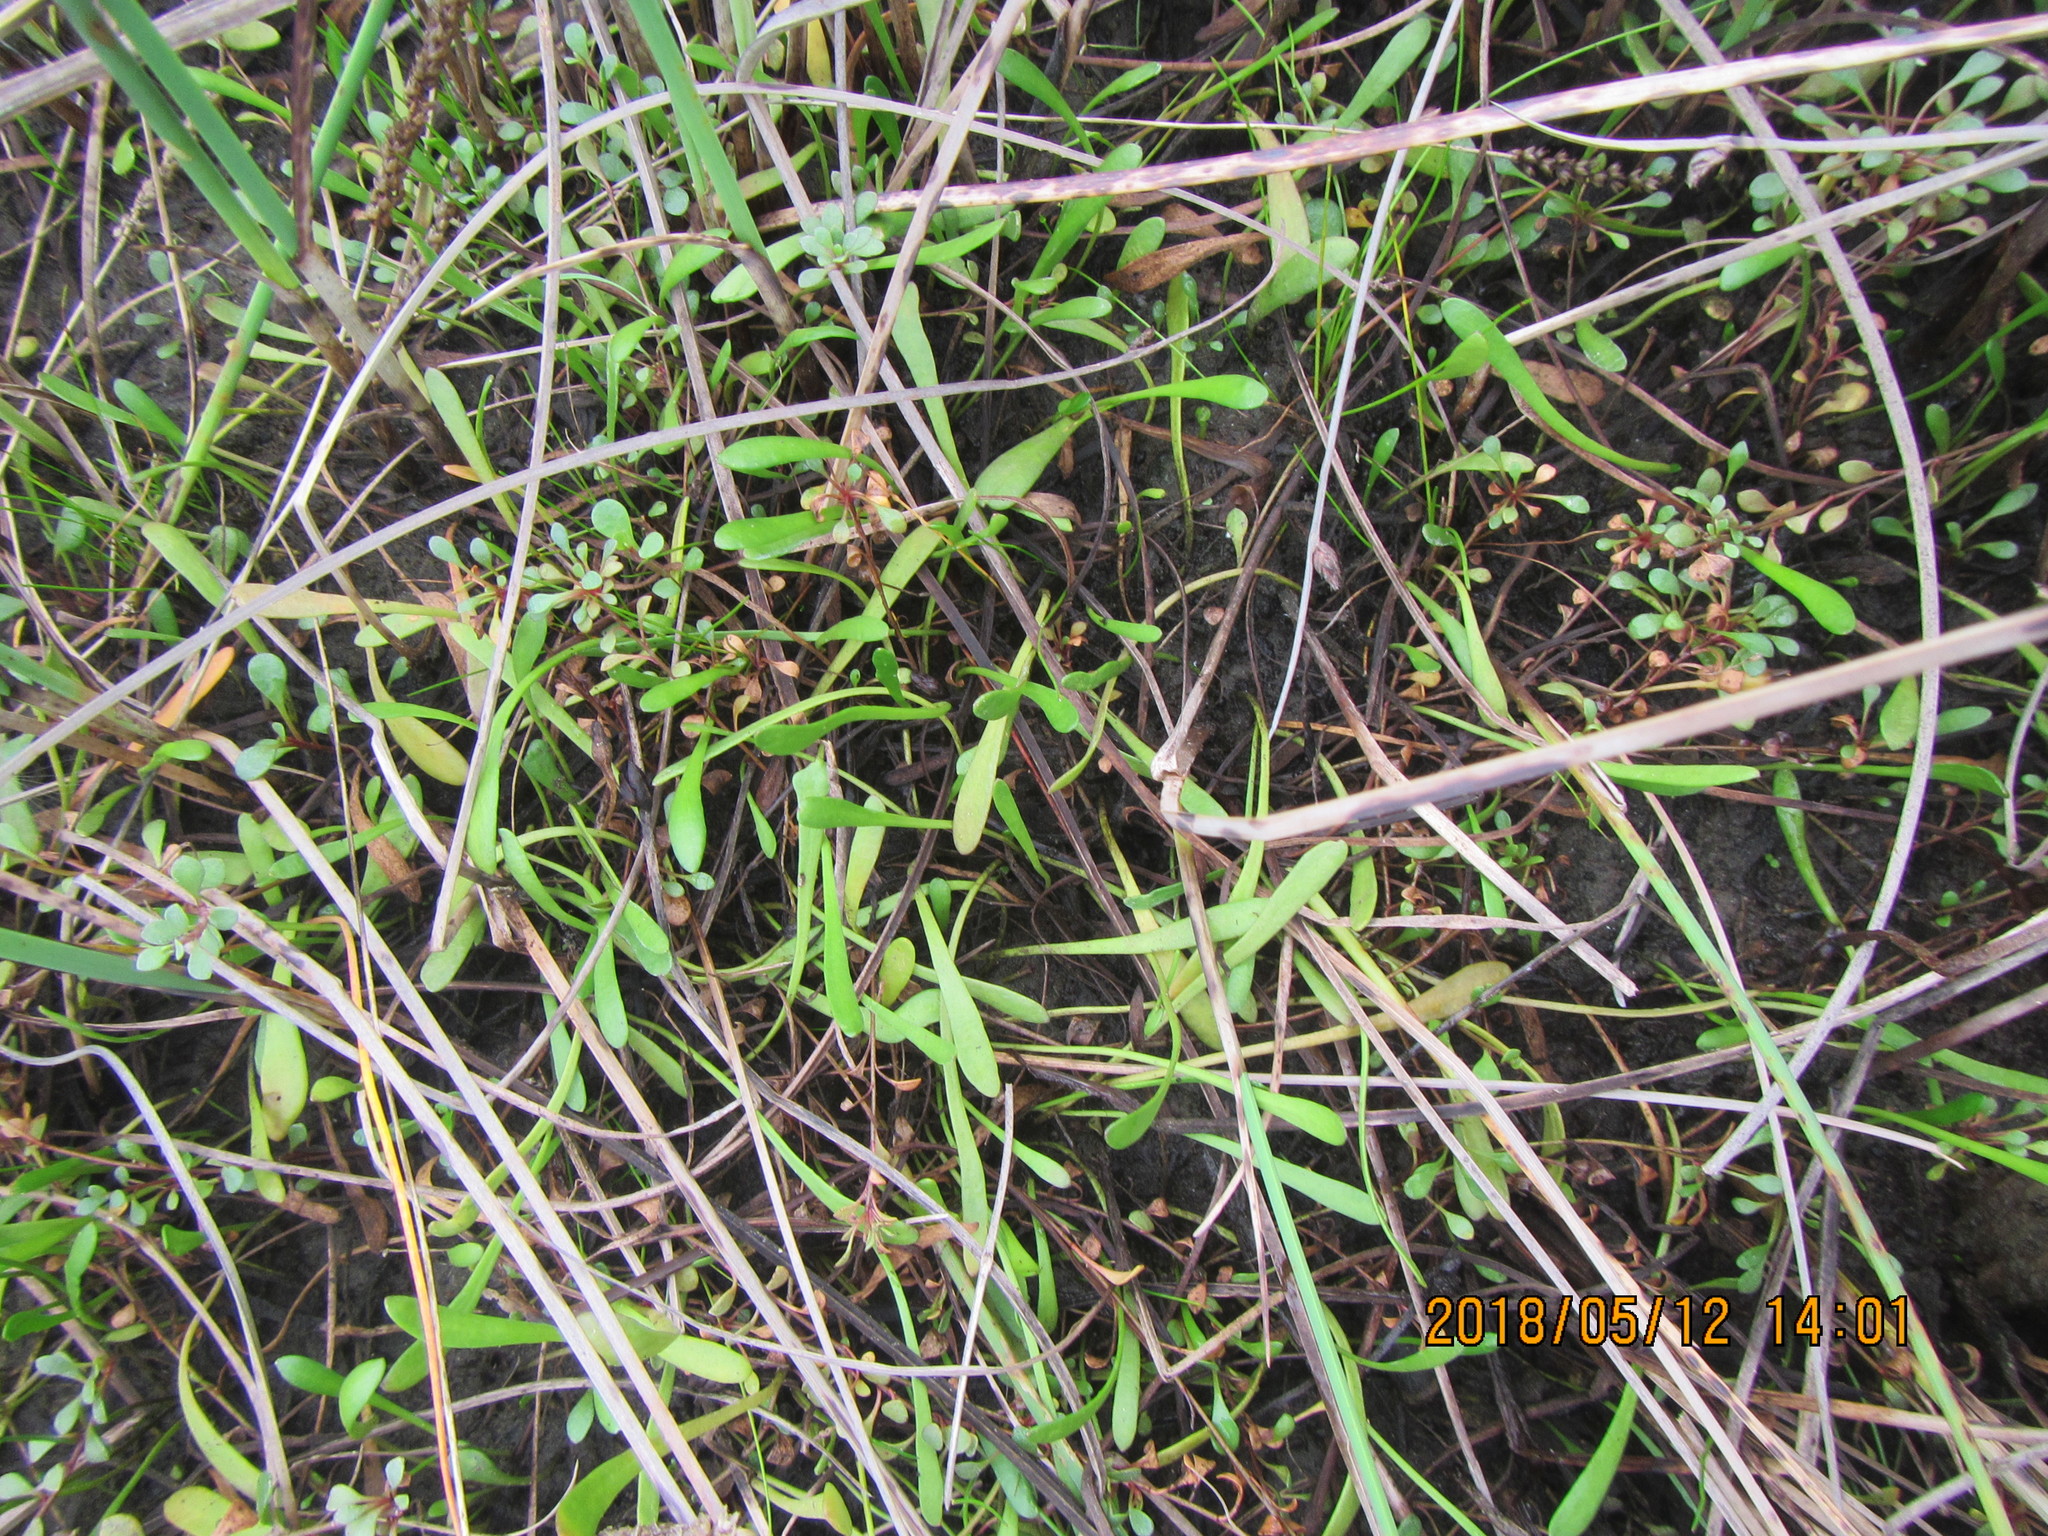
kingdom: Plantae
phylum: Tracheophyta
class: Magnoliopsida
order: Asterales
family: Goodeniaceae
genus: Goodenia
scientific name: Goodenia radicans
